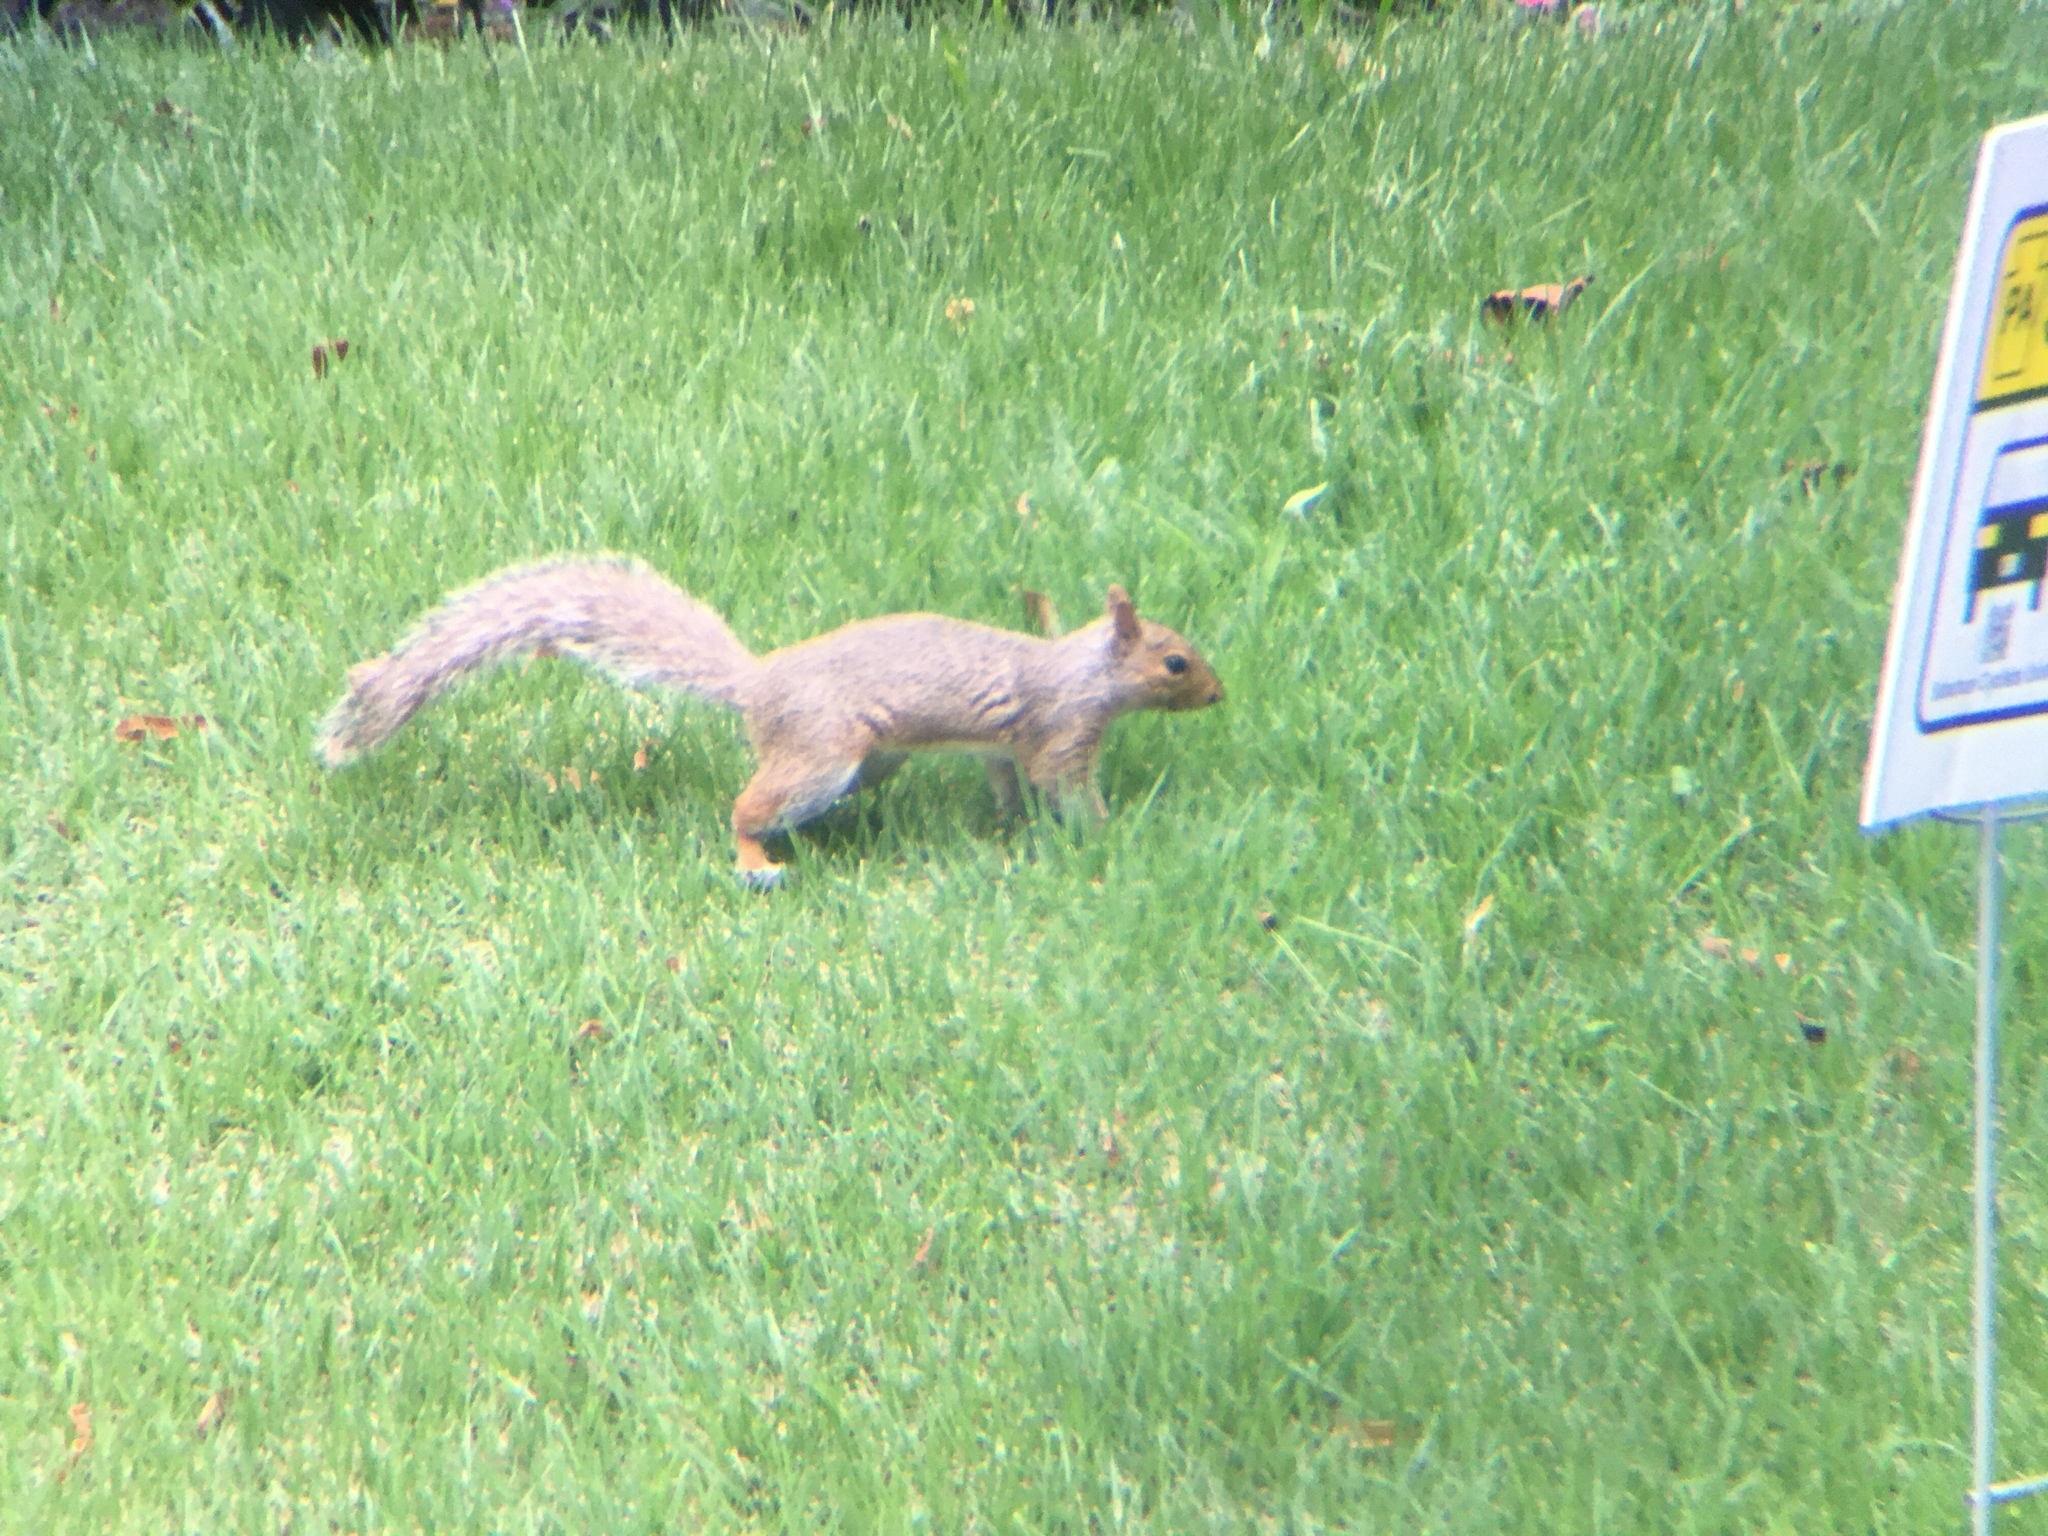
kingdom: Animalia
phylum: Chordata
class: Mammalia
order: Rodentia
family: Sciuridae
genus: Sciurus
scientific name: Sciurus carolinensis
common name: Eastern gray squirrel
